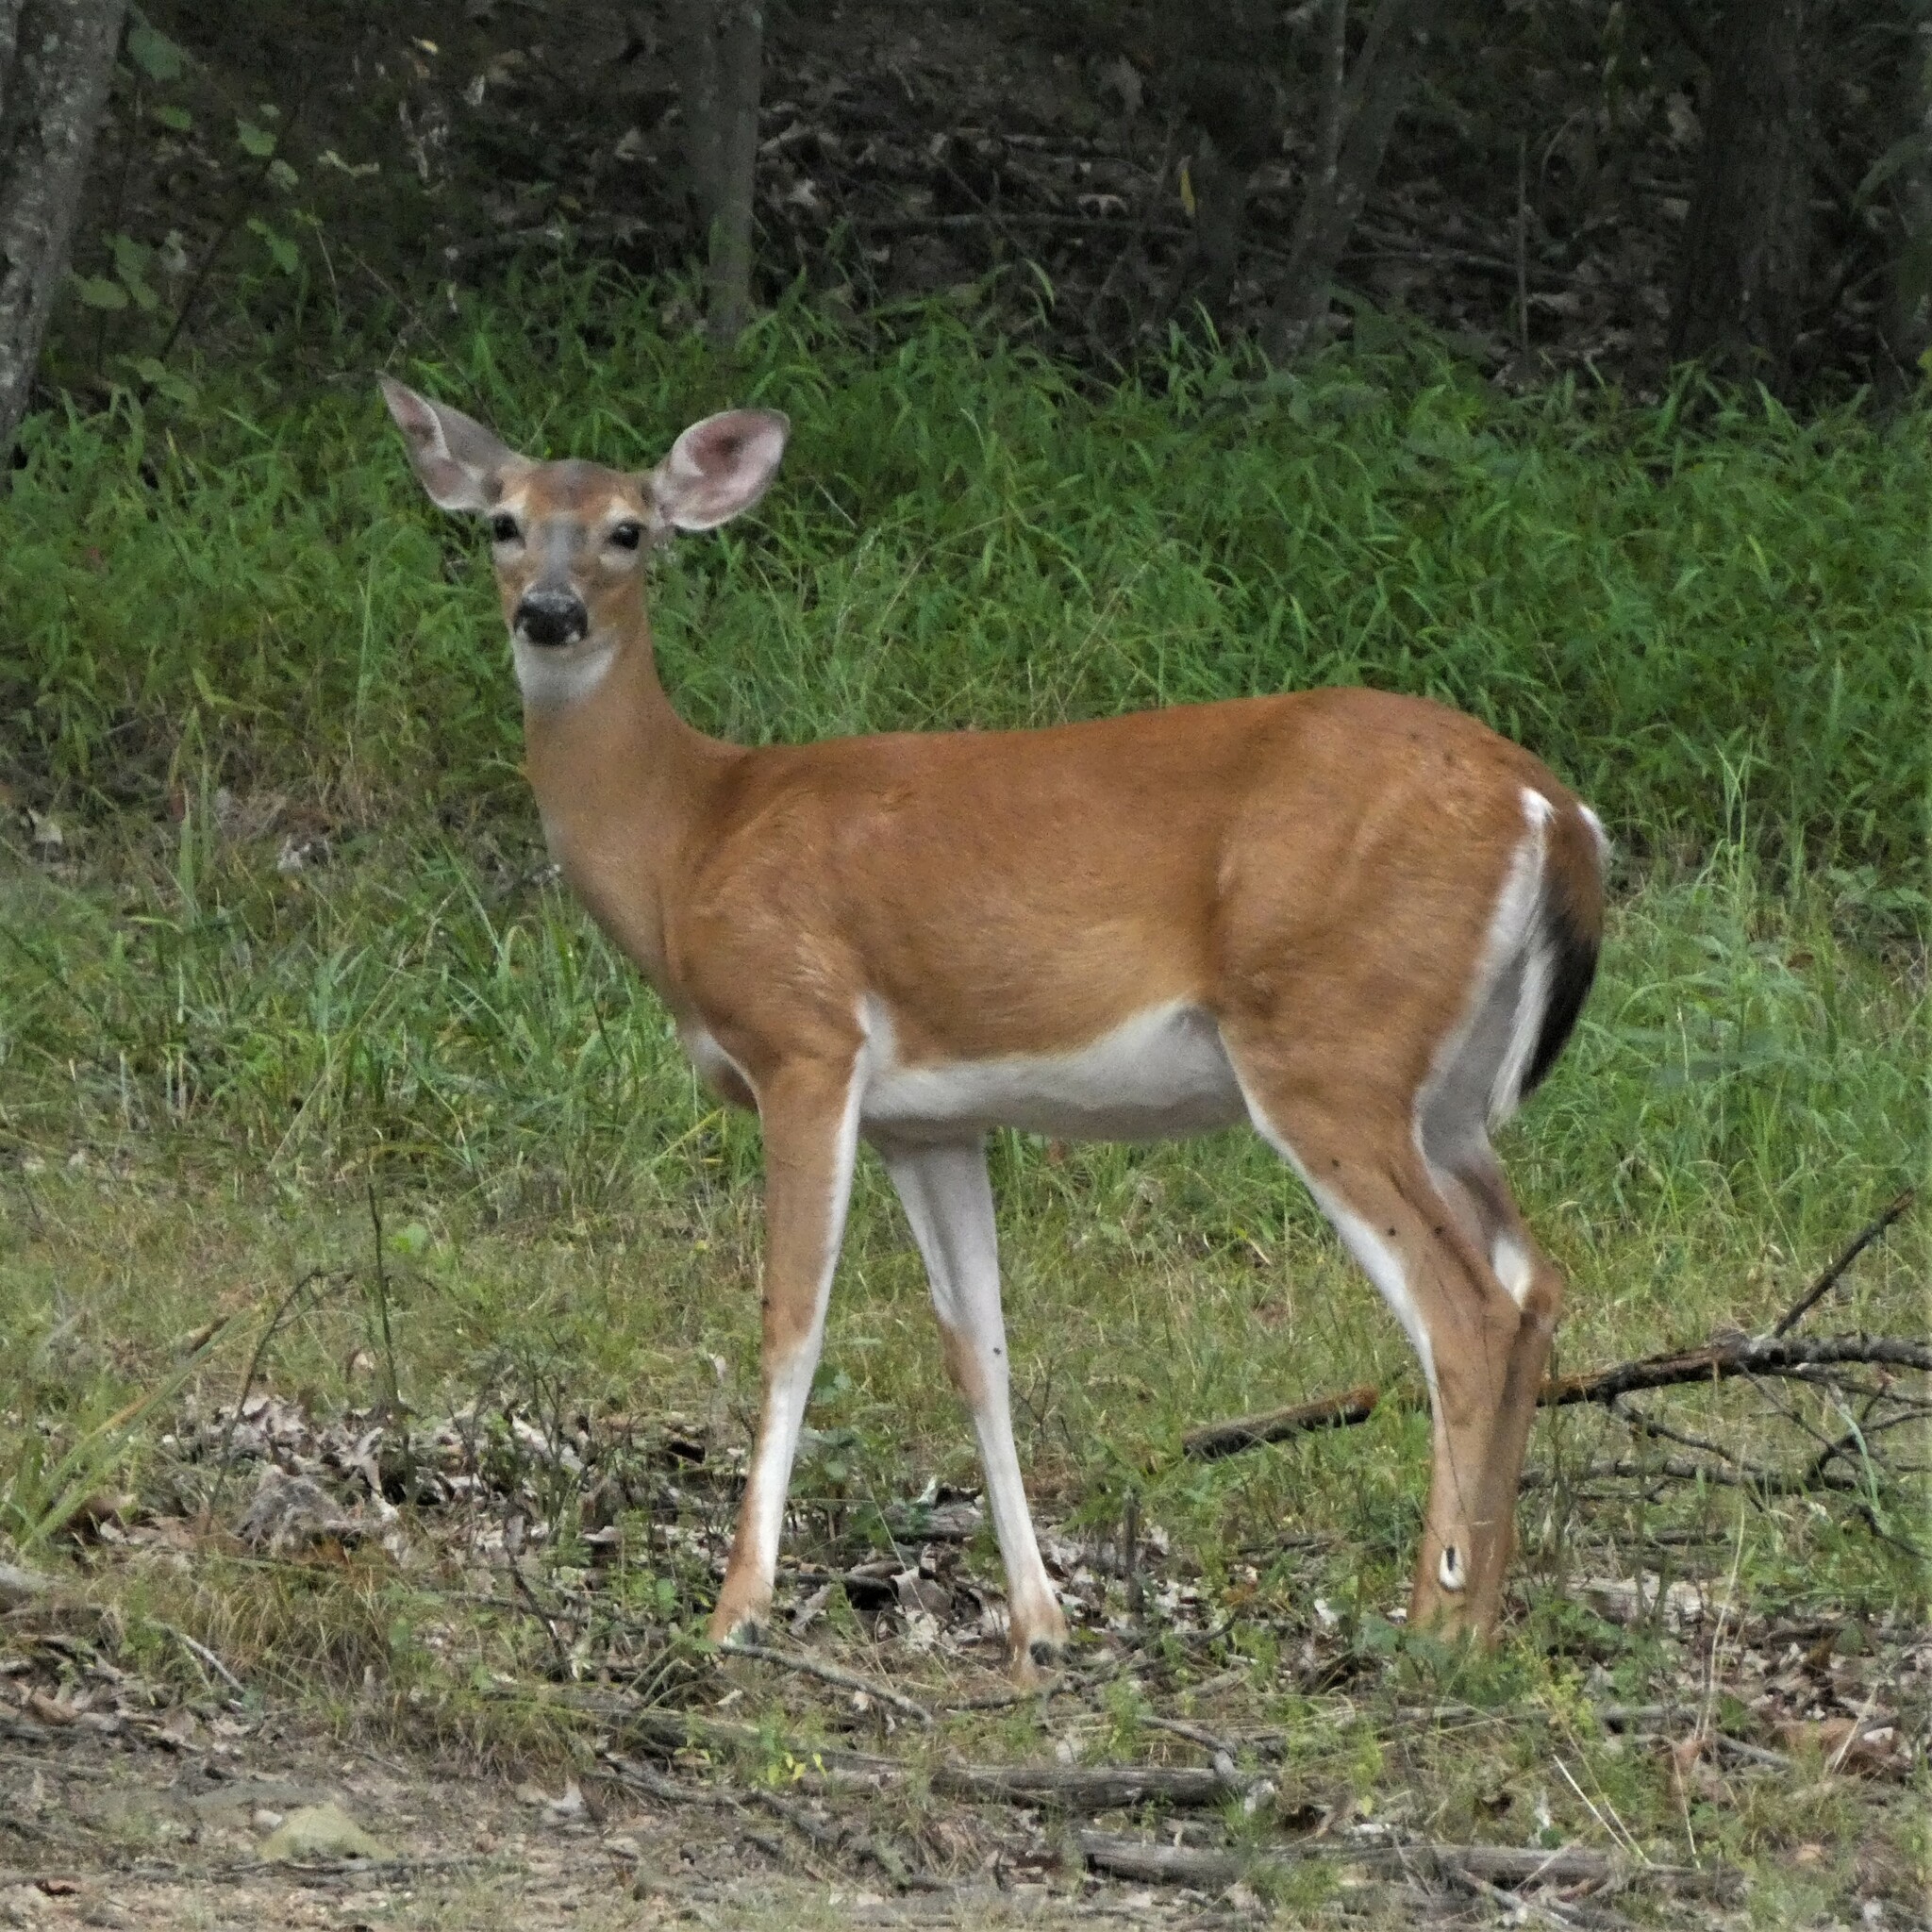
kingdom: Animalia
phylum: Chordata
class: Mammalia
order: Artiodactyla
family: Cervidae
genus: Odocoileus
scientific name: Odocoileus virginianus
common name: White-tailed deer
